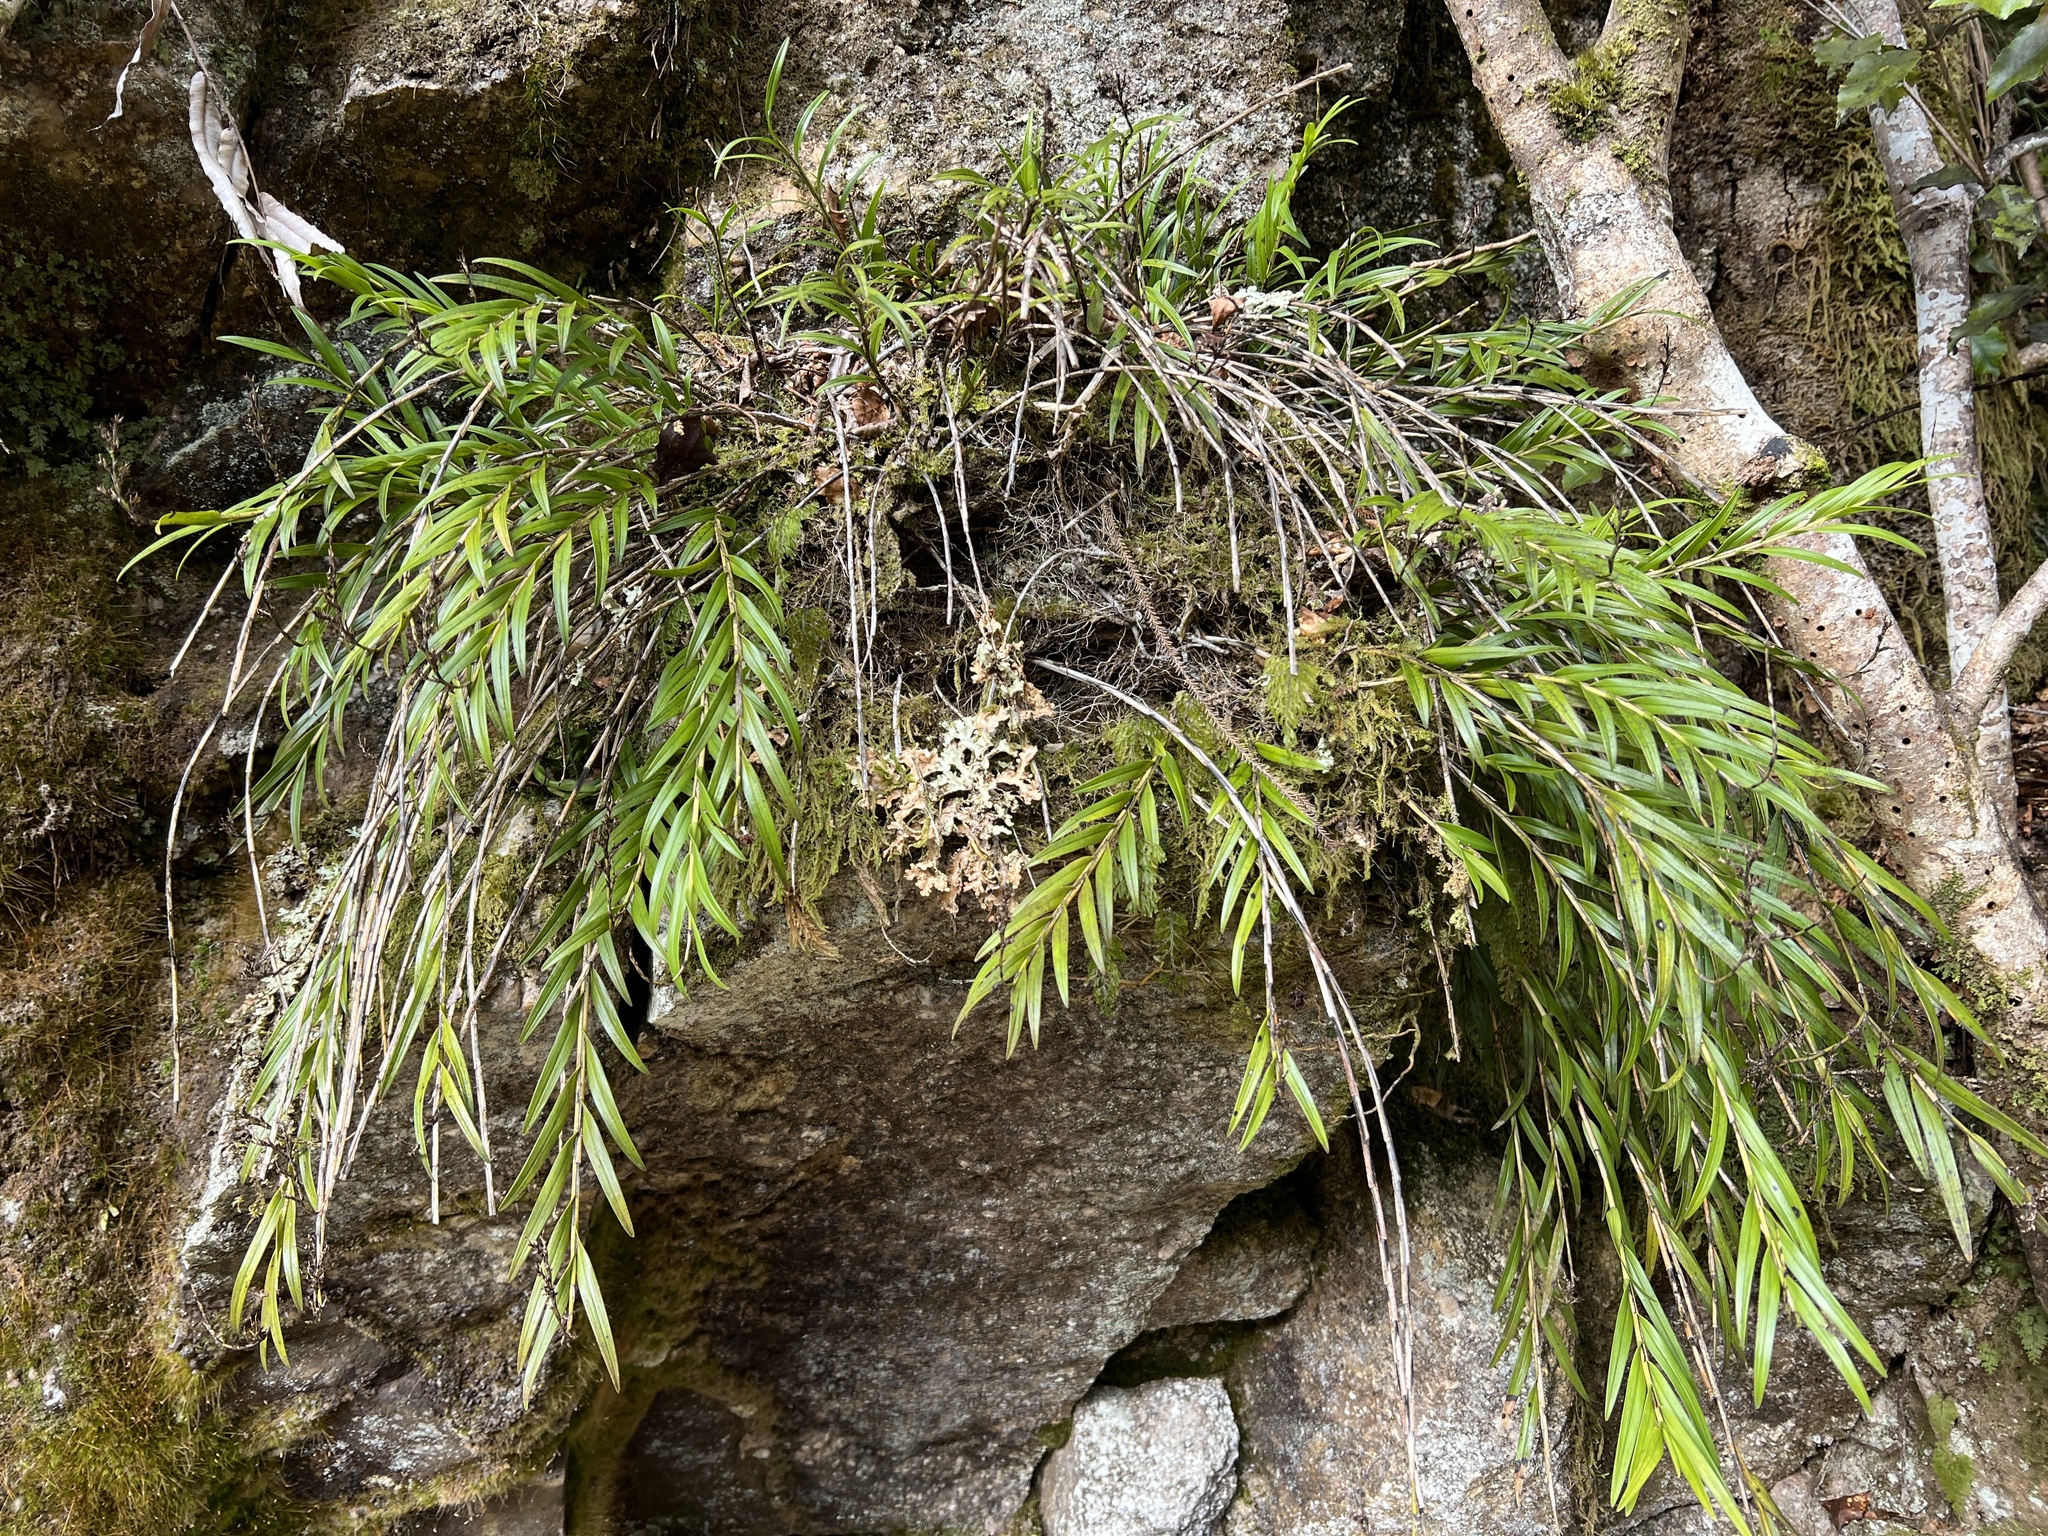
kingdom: Plantae
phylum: Tracheophyta
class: Liliopsida
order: Asparagales
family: Orchidaceae
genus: Earina
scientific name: Earina autumnalis
